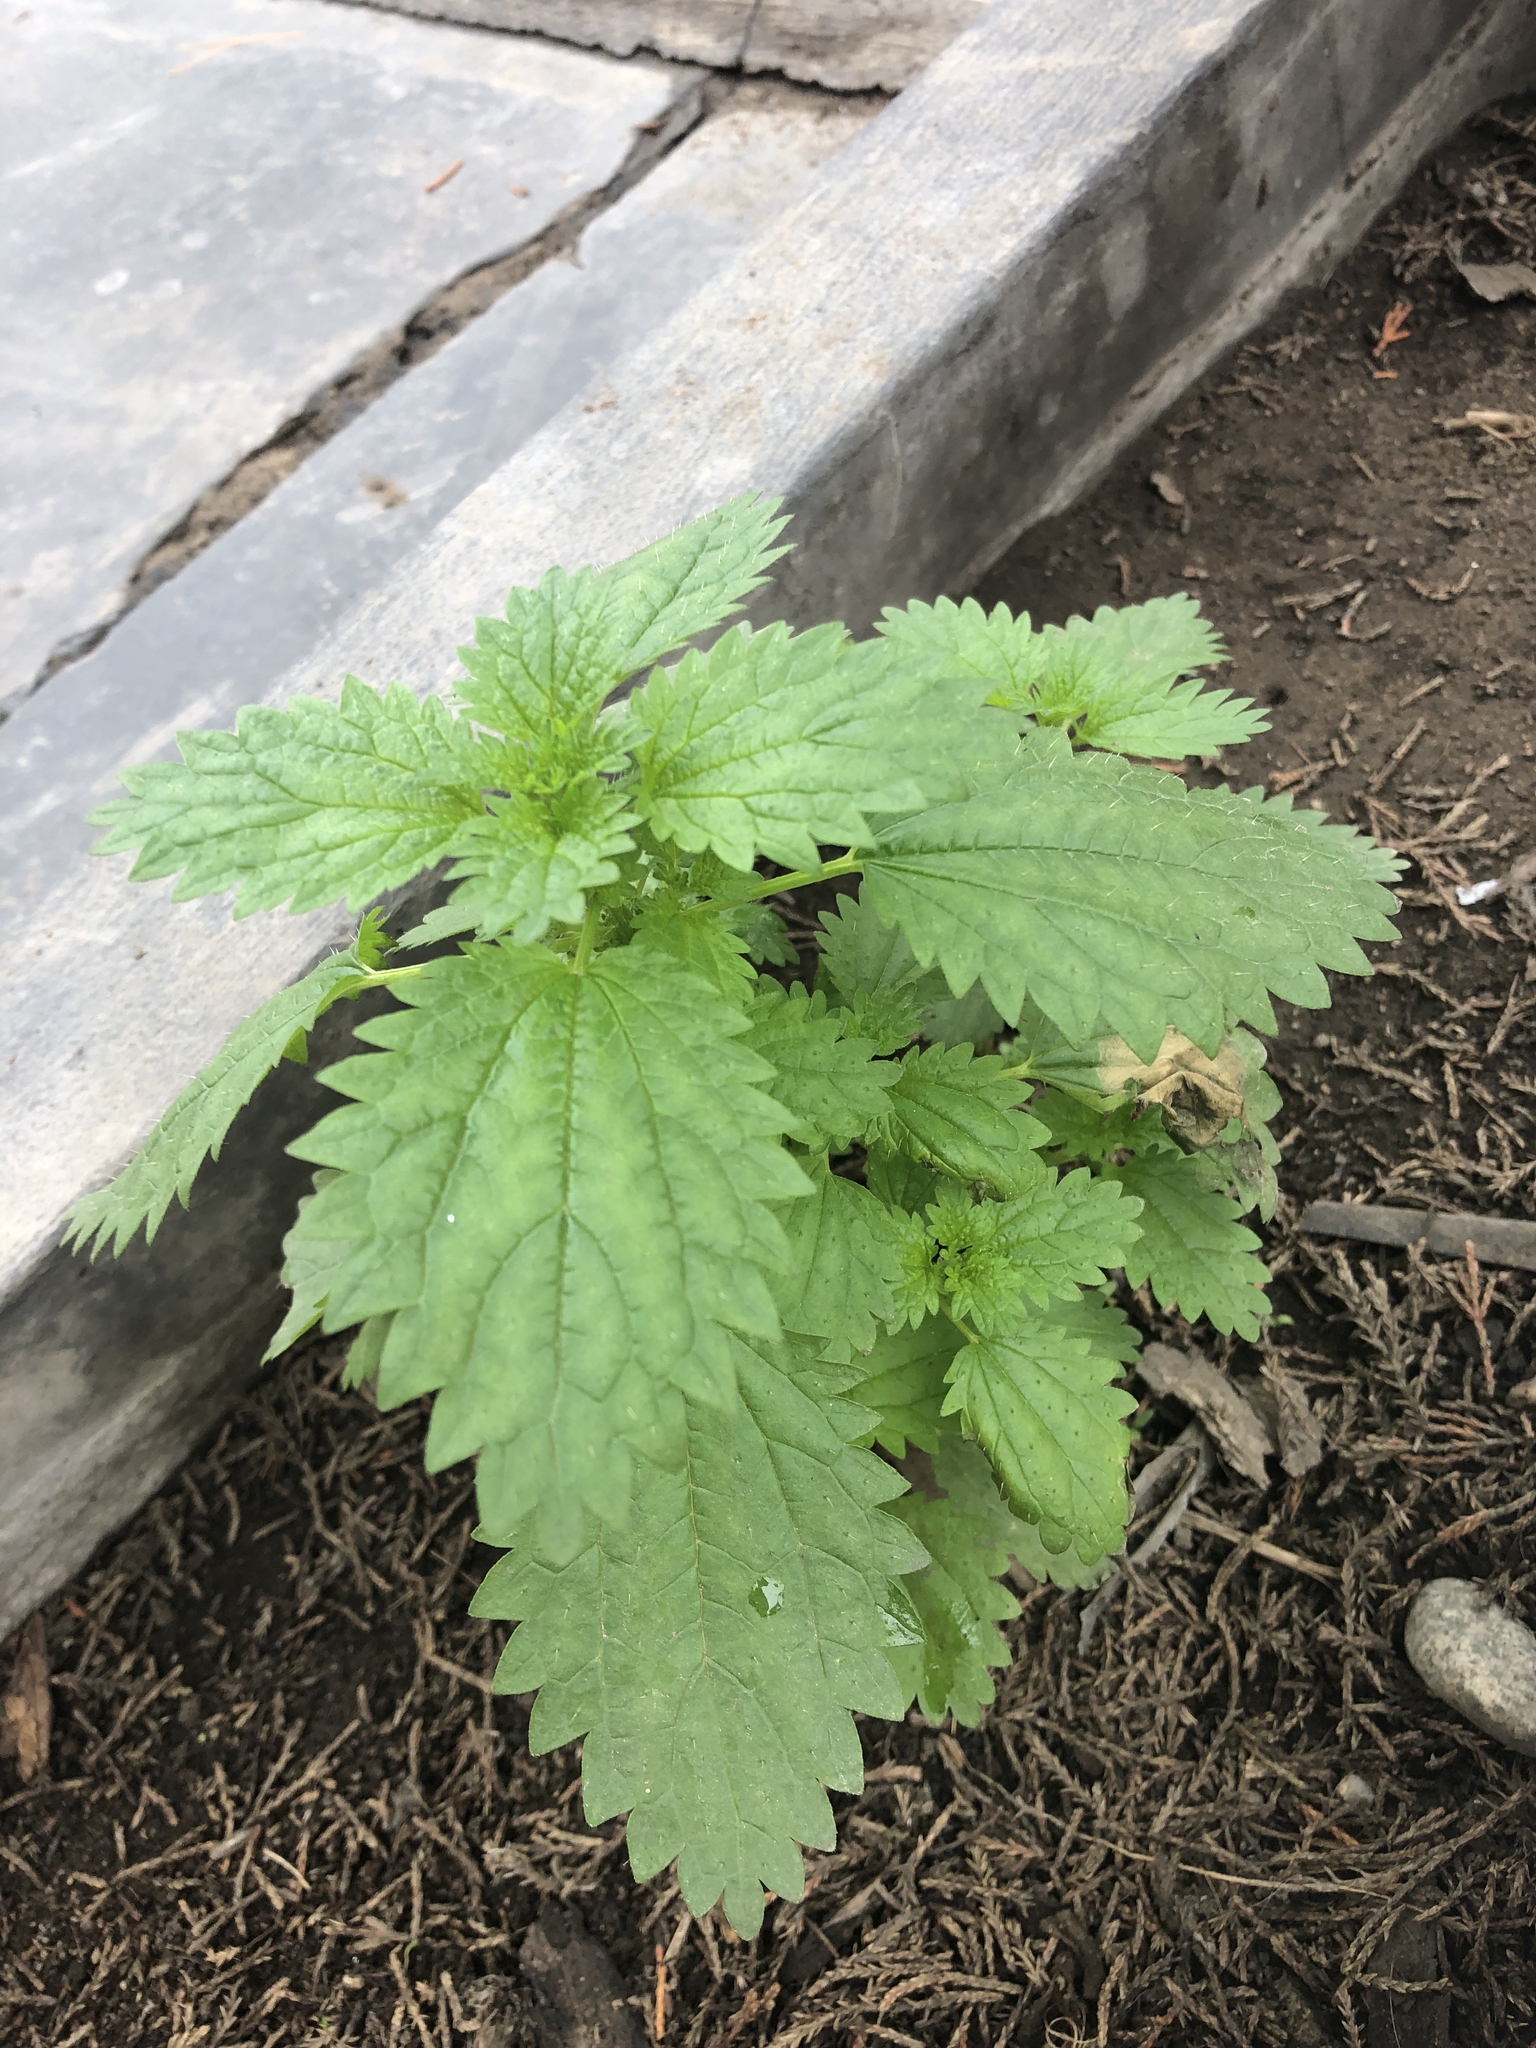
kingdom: Plantae
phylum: Tracheophyta
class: Magnoliopsida
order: Rosales
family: Urticaceae
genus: Urtica
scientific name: Urtica urens
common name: Dwarf nettle
